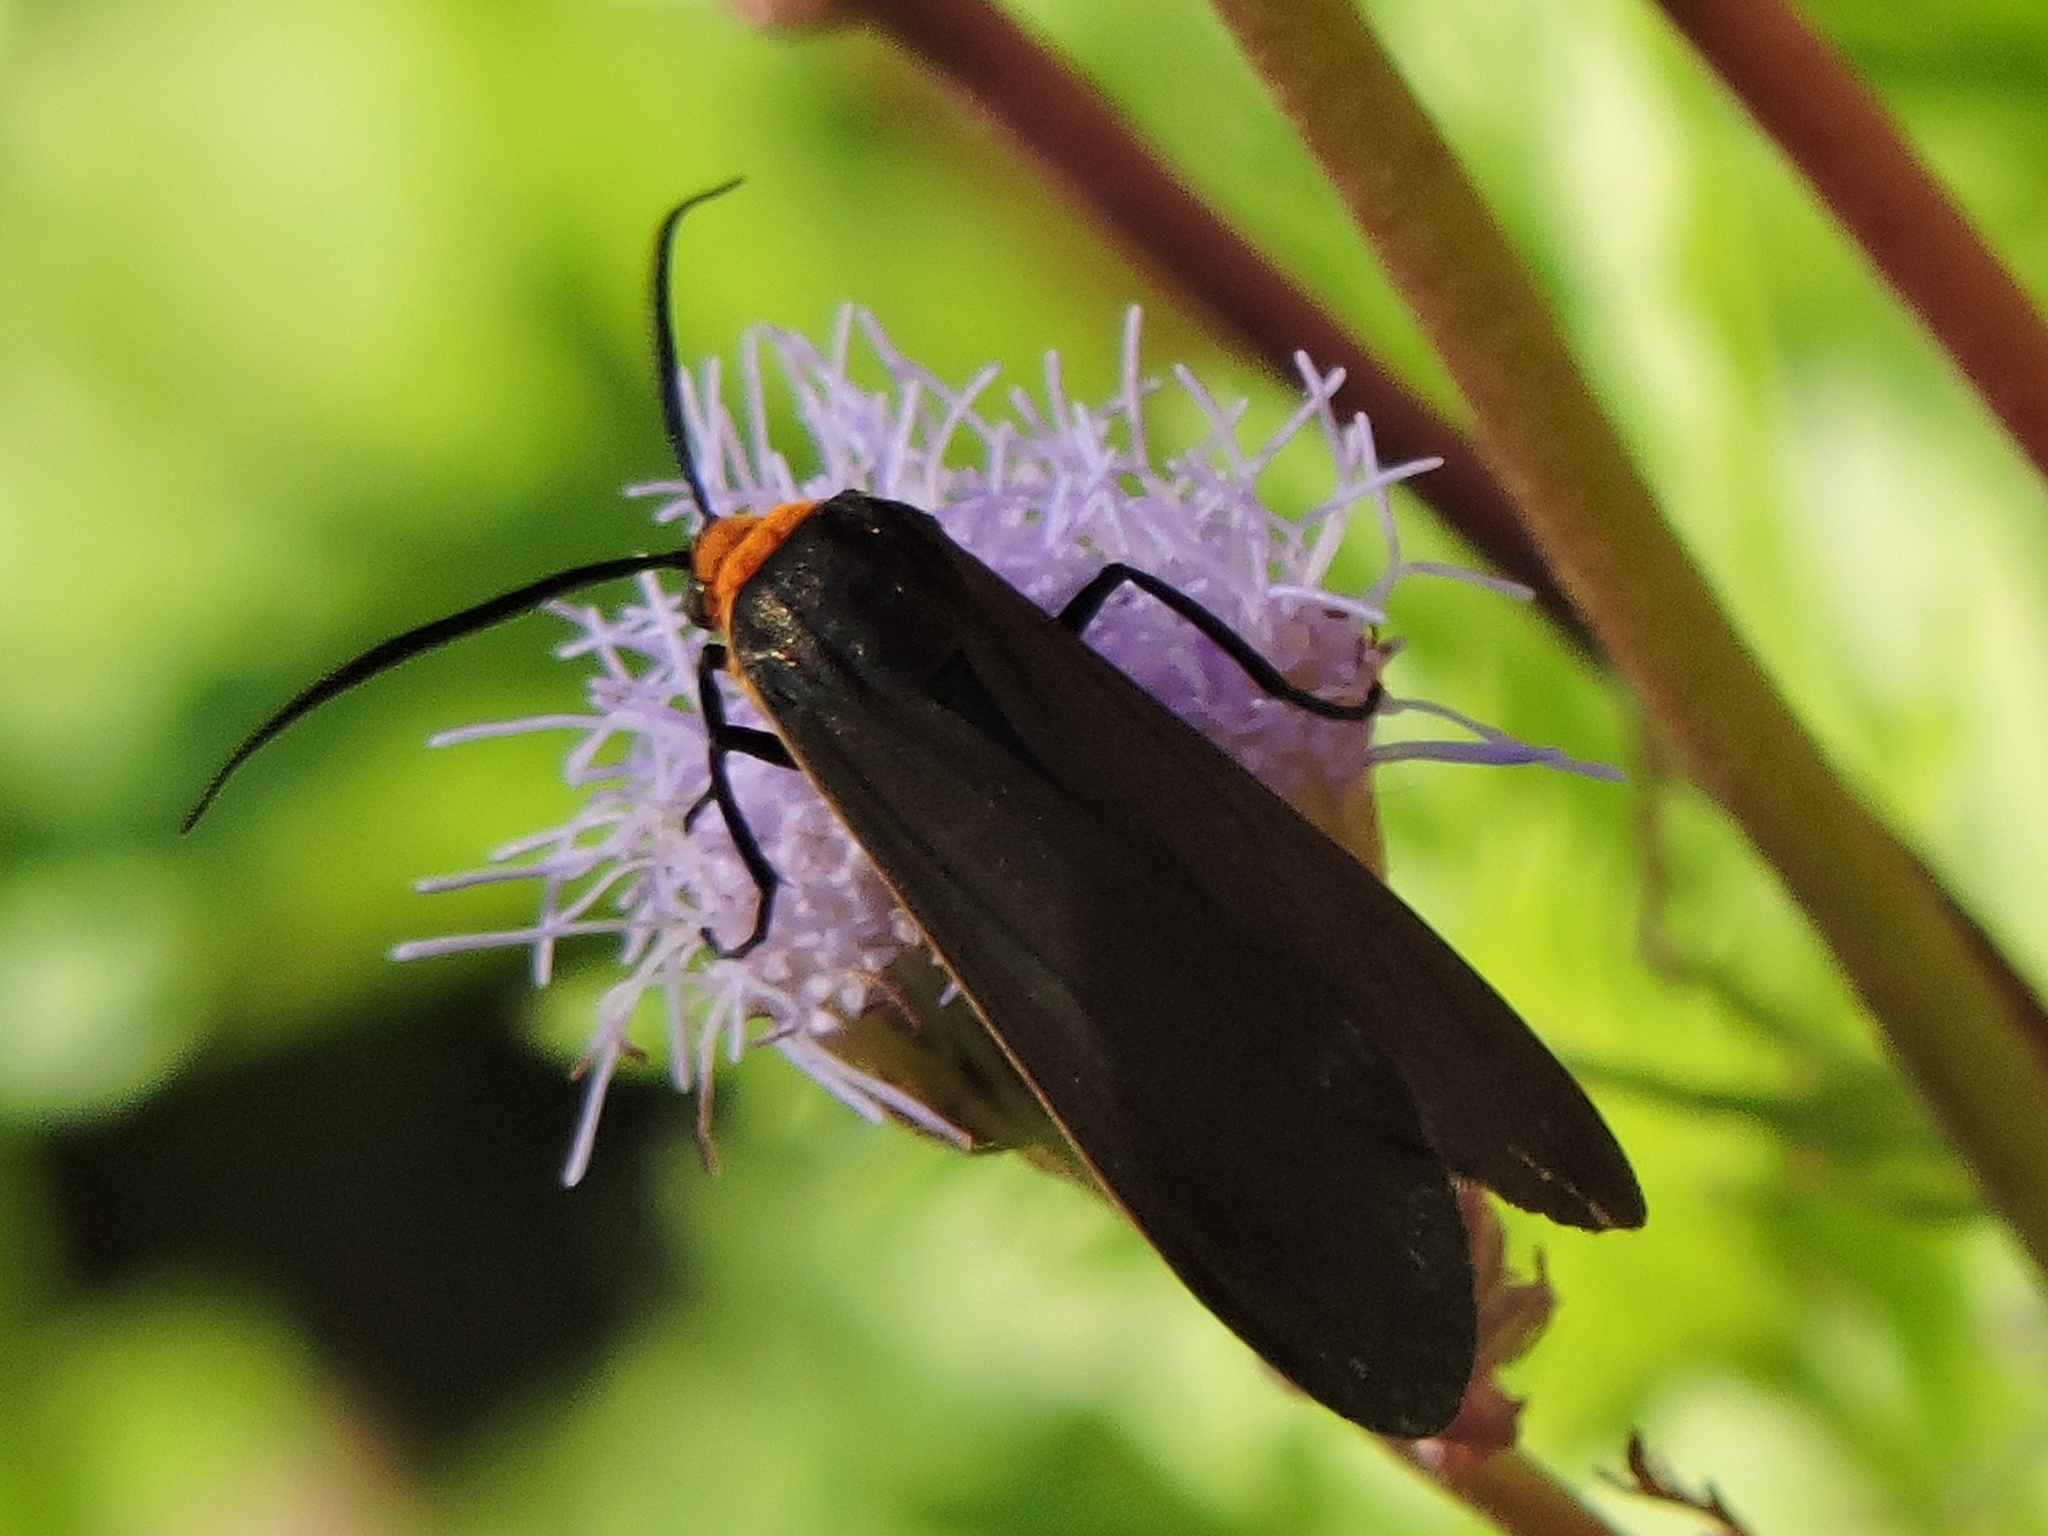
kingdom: Animalia
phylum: Arthropoda
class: Insecta
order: Lepidoptera
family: Erebidae
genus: Cisseps
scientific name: Cisseps fulvicollis
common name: Yellow-collared scape moth
